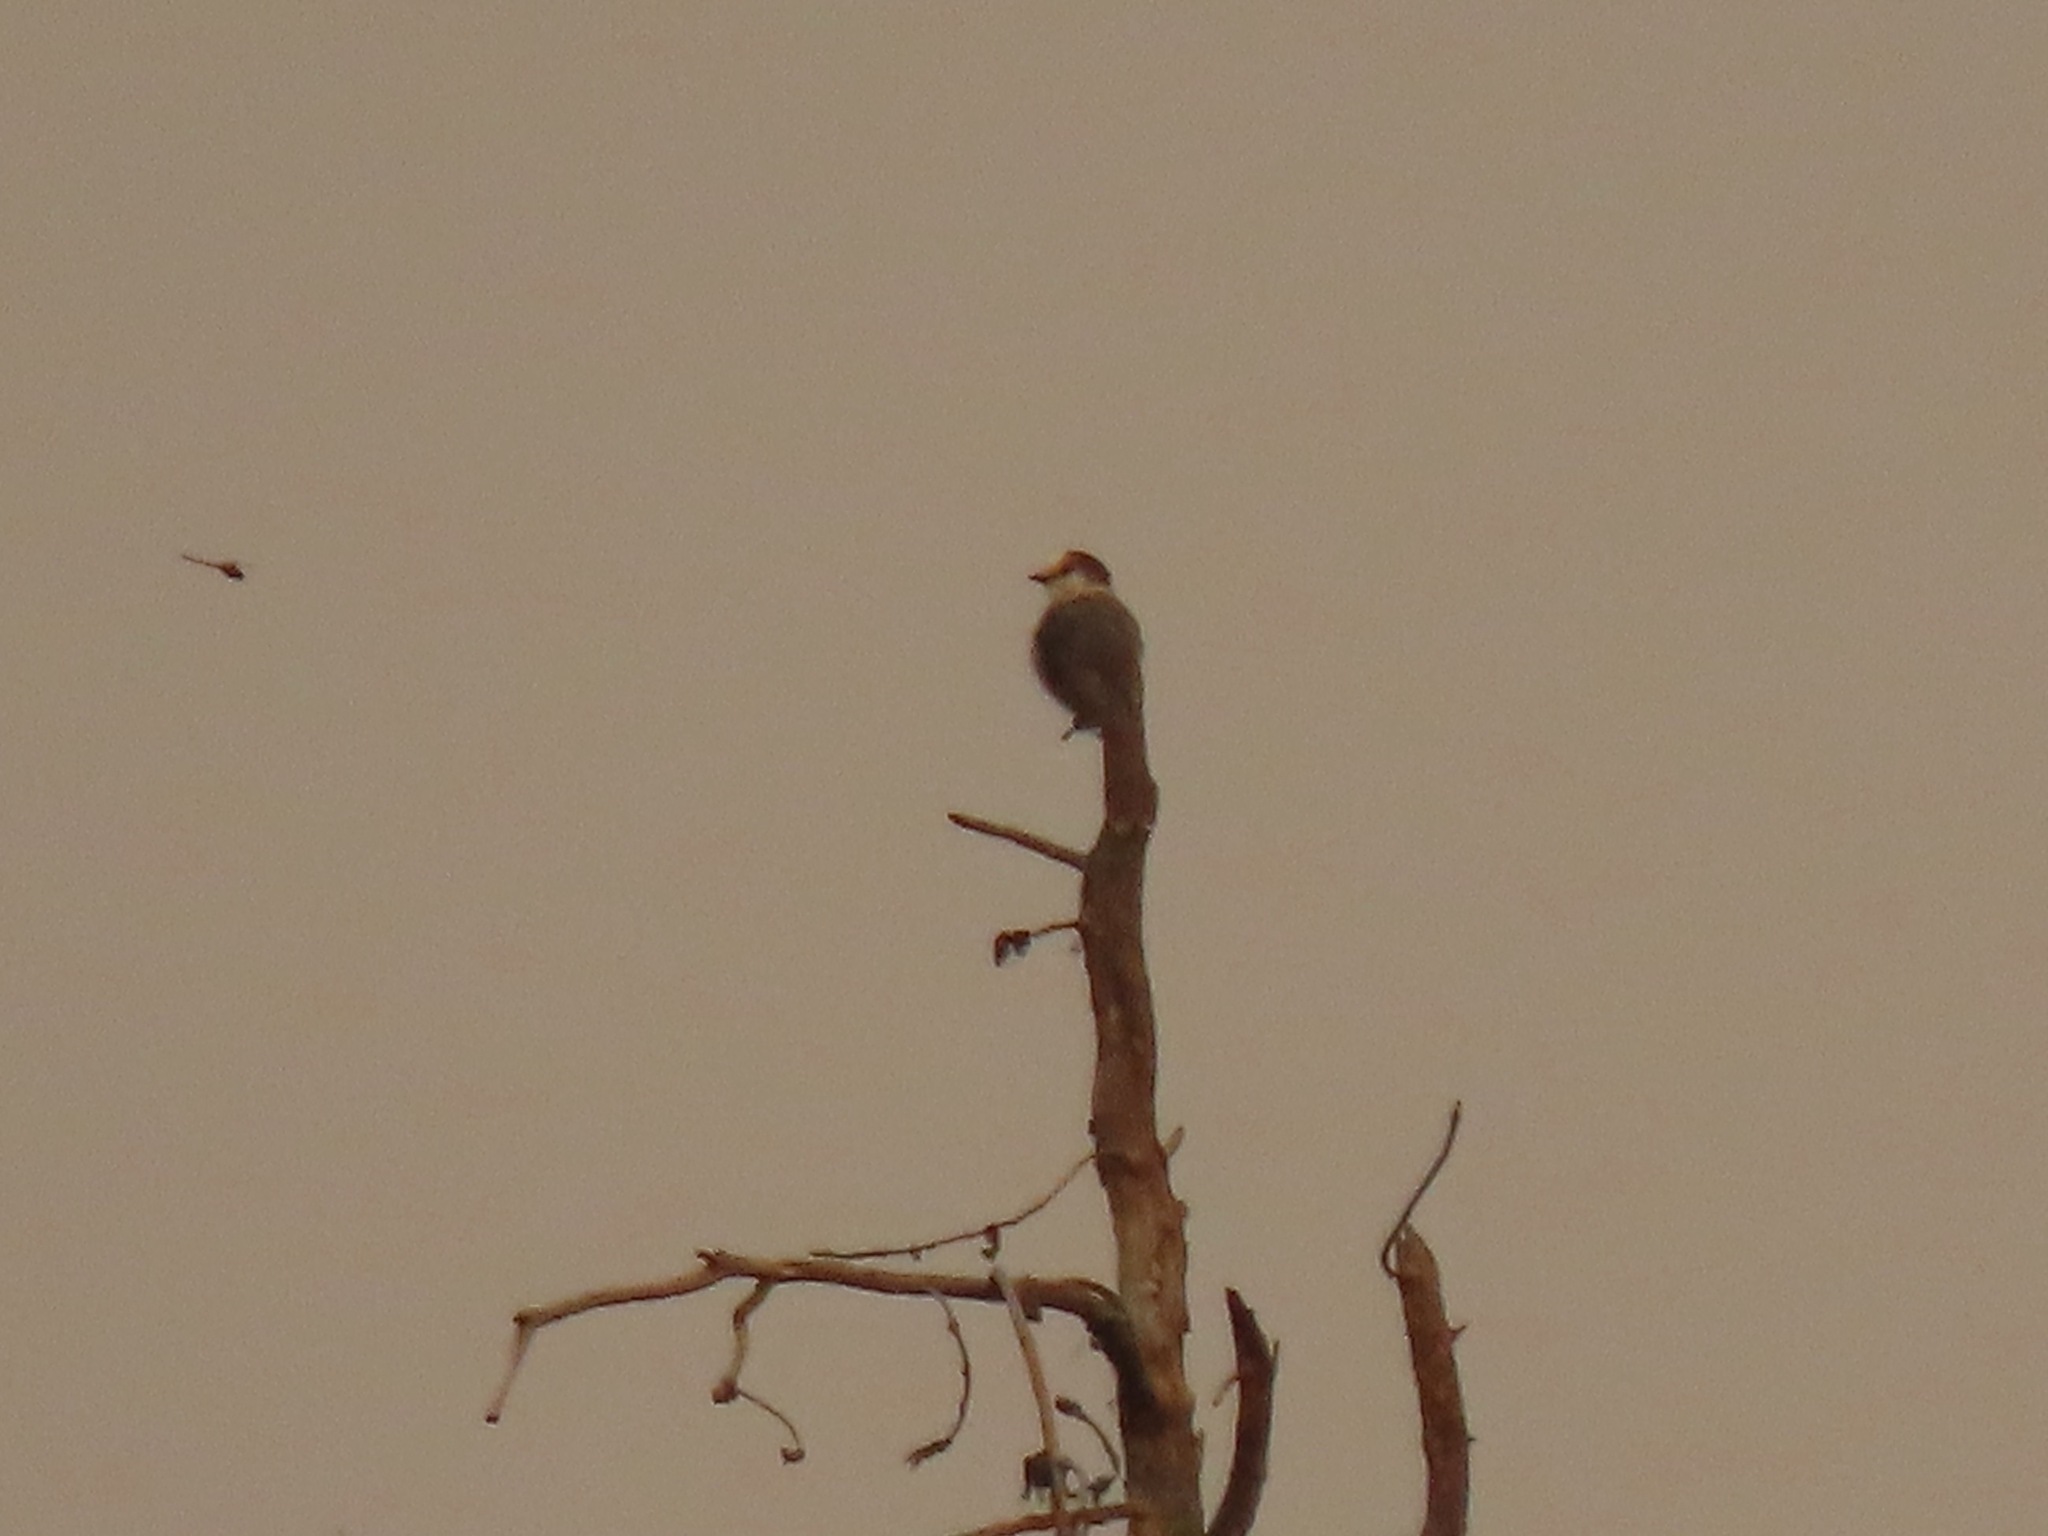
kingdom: Animalia
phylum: Chordata
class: Aves
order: Passeriformes
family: Corvidae
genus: Perisoreus
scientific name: Perisoreus canadensis
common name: Gray jay
